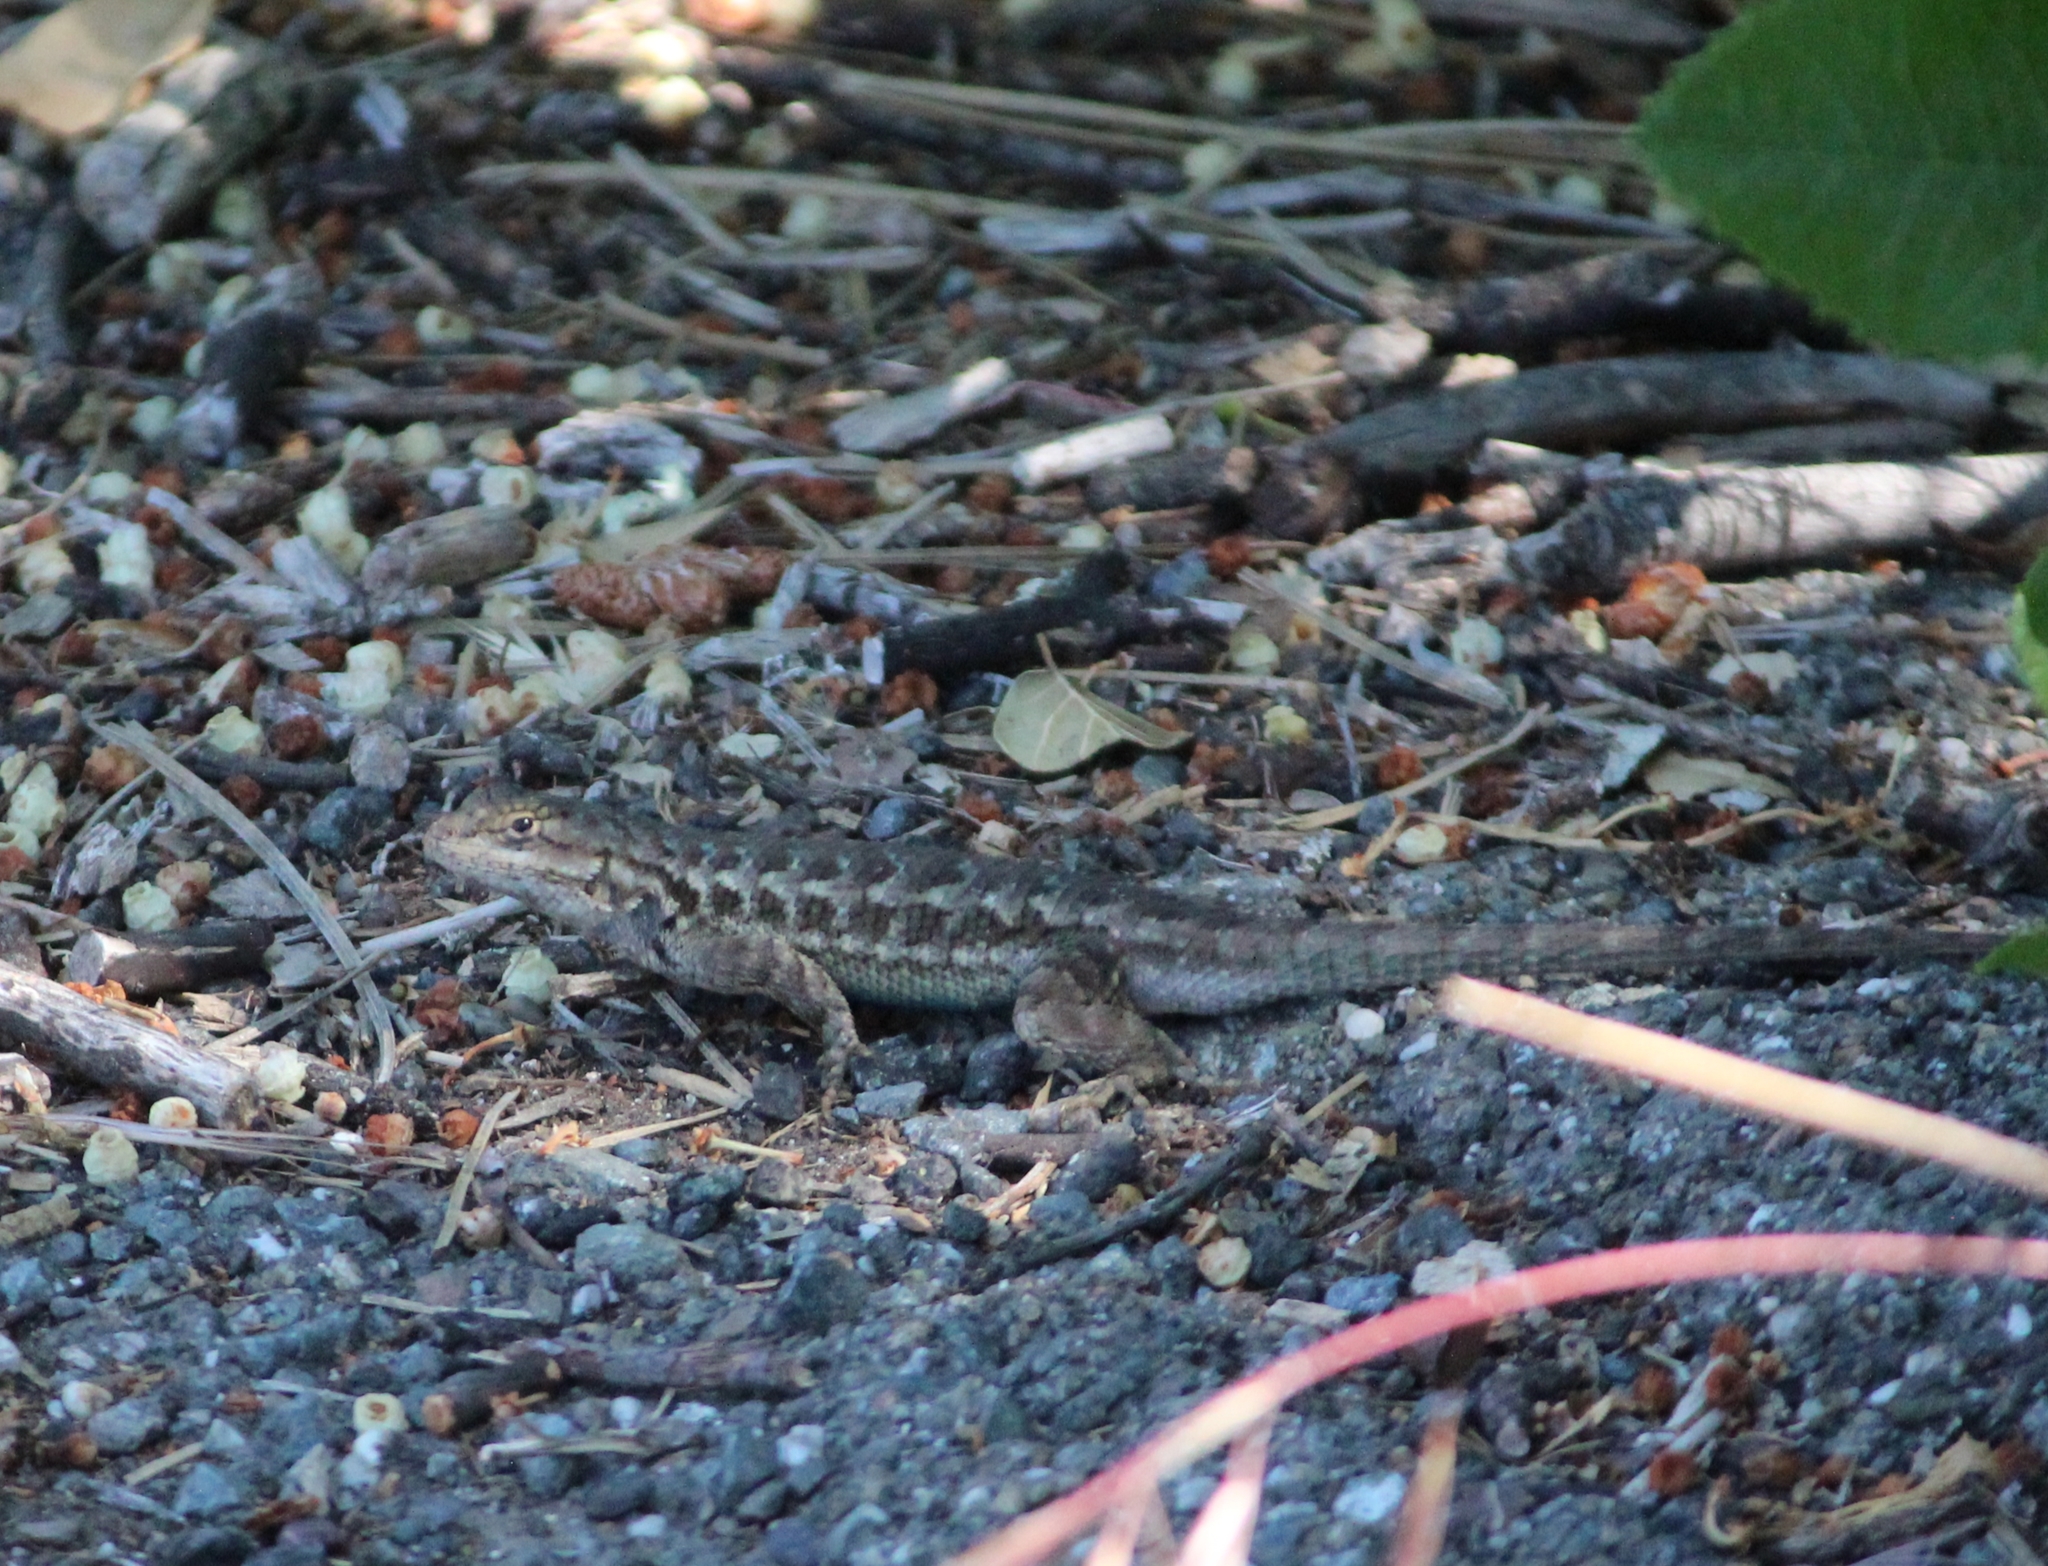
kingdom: Animalia
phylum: Chordata
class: Squamata
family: Phrynosomatidae
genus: Sceloporus
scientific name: Sceloporus occidentalis
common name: Western fence lizard
